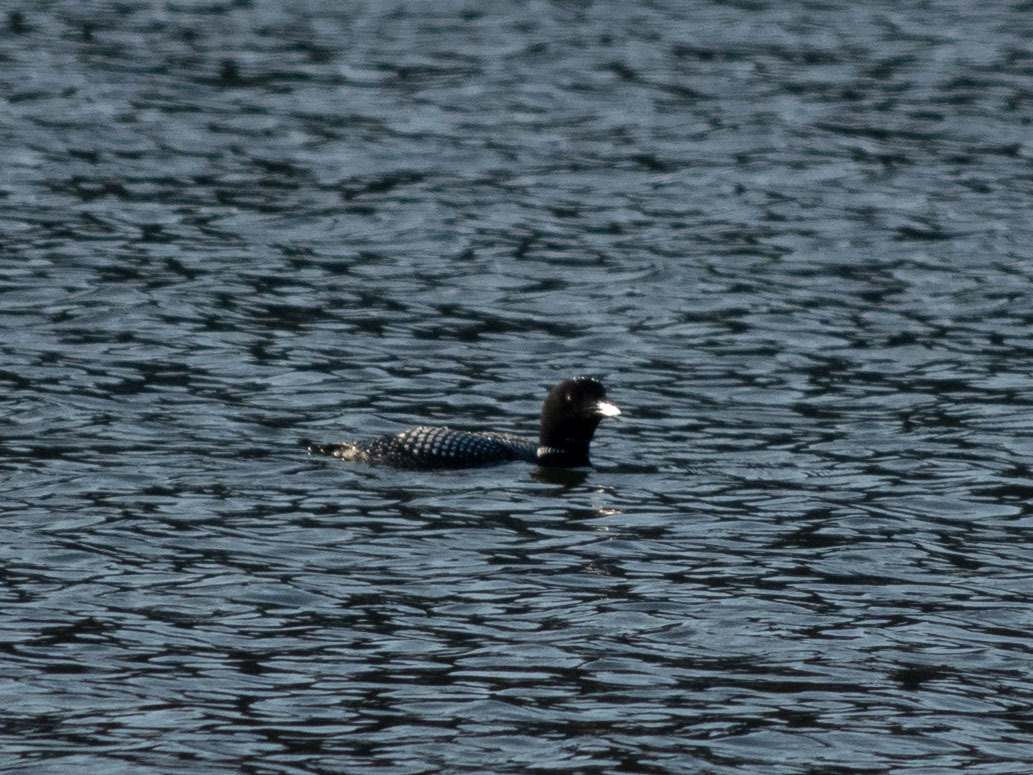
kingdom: Animalia
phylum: Chordata
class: Aves
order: Gaviiformes
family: Gaviidae
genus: Gavia
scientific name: Gavia immer
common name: Common loon
